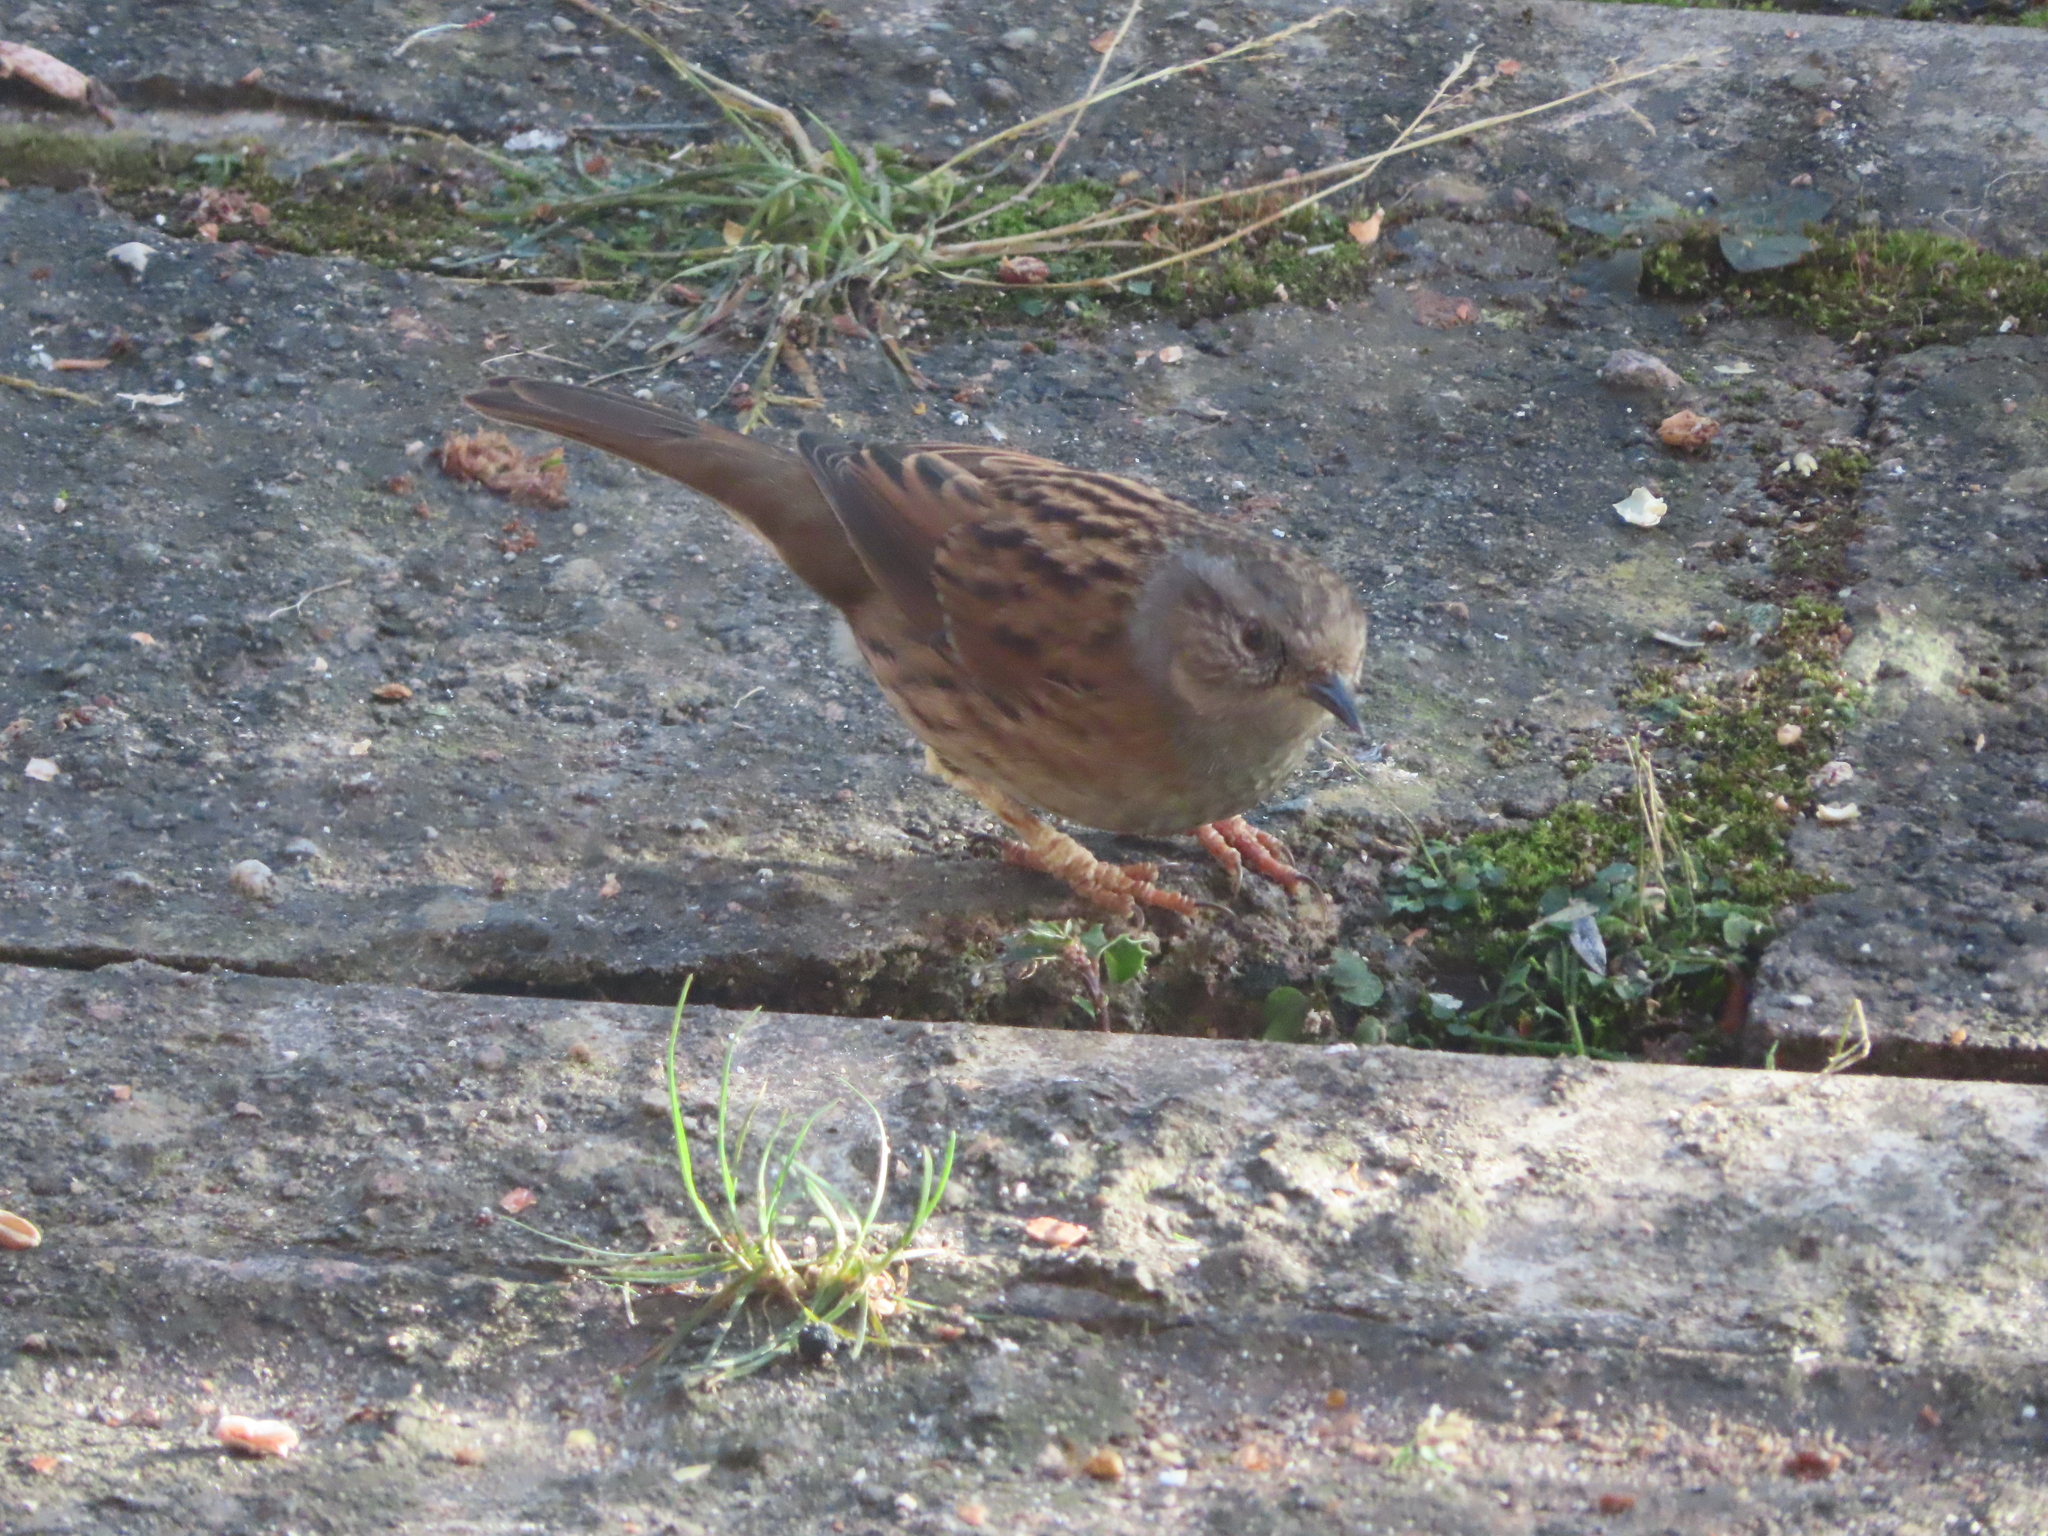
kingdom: Animalia
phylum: Chordata
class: Aves
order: Passeriformes
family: Prunellidae
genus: Prunella
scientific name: Prunella modularis
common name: Dunnock
